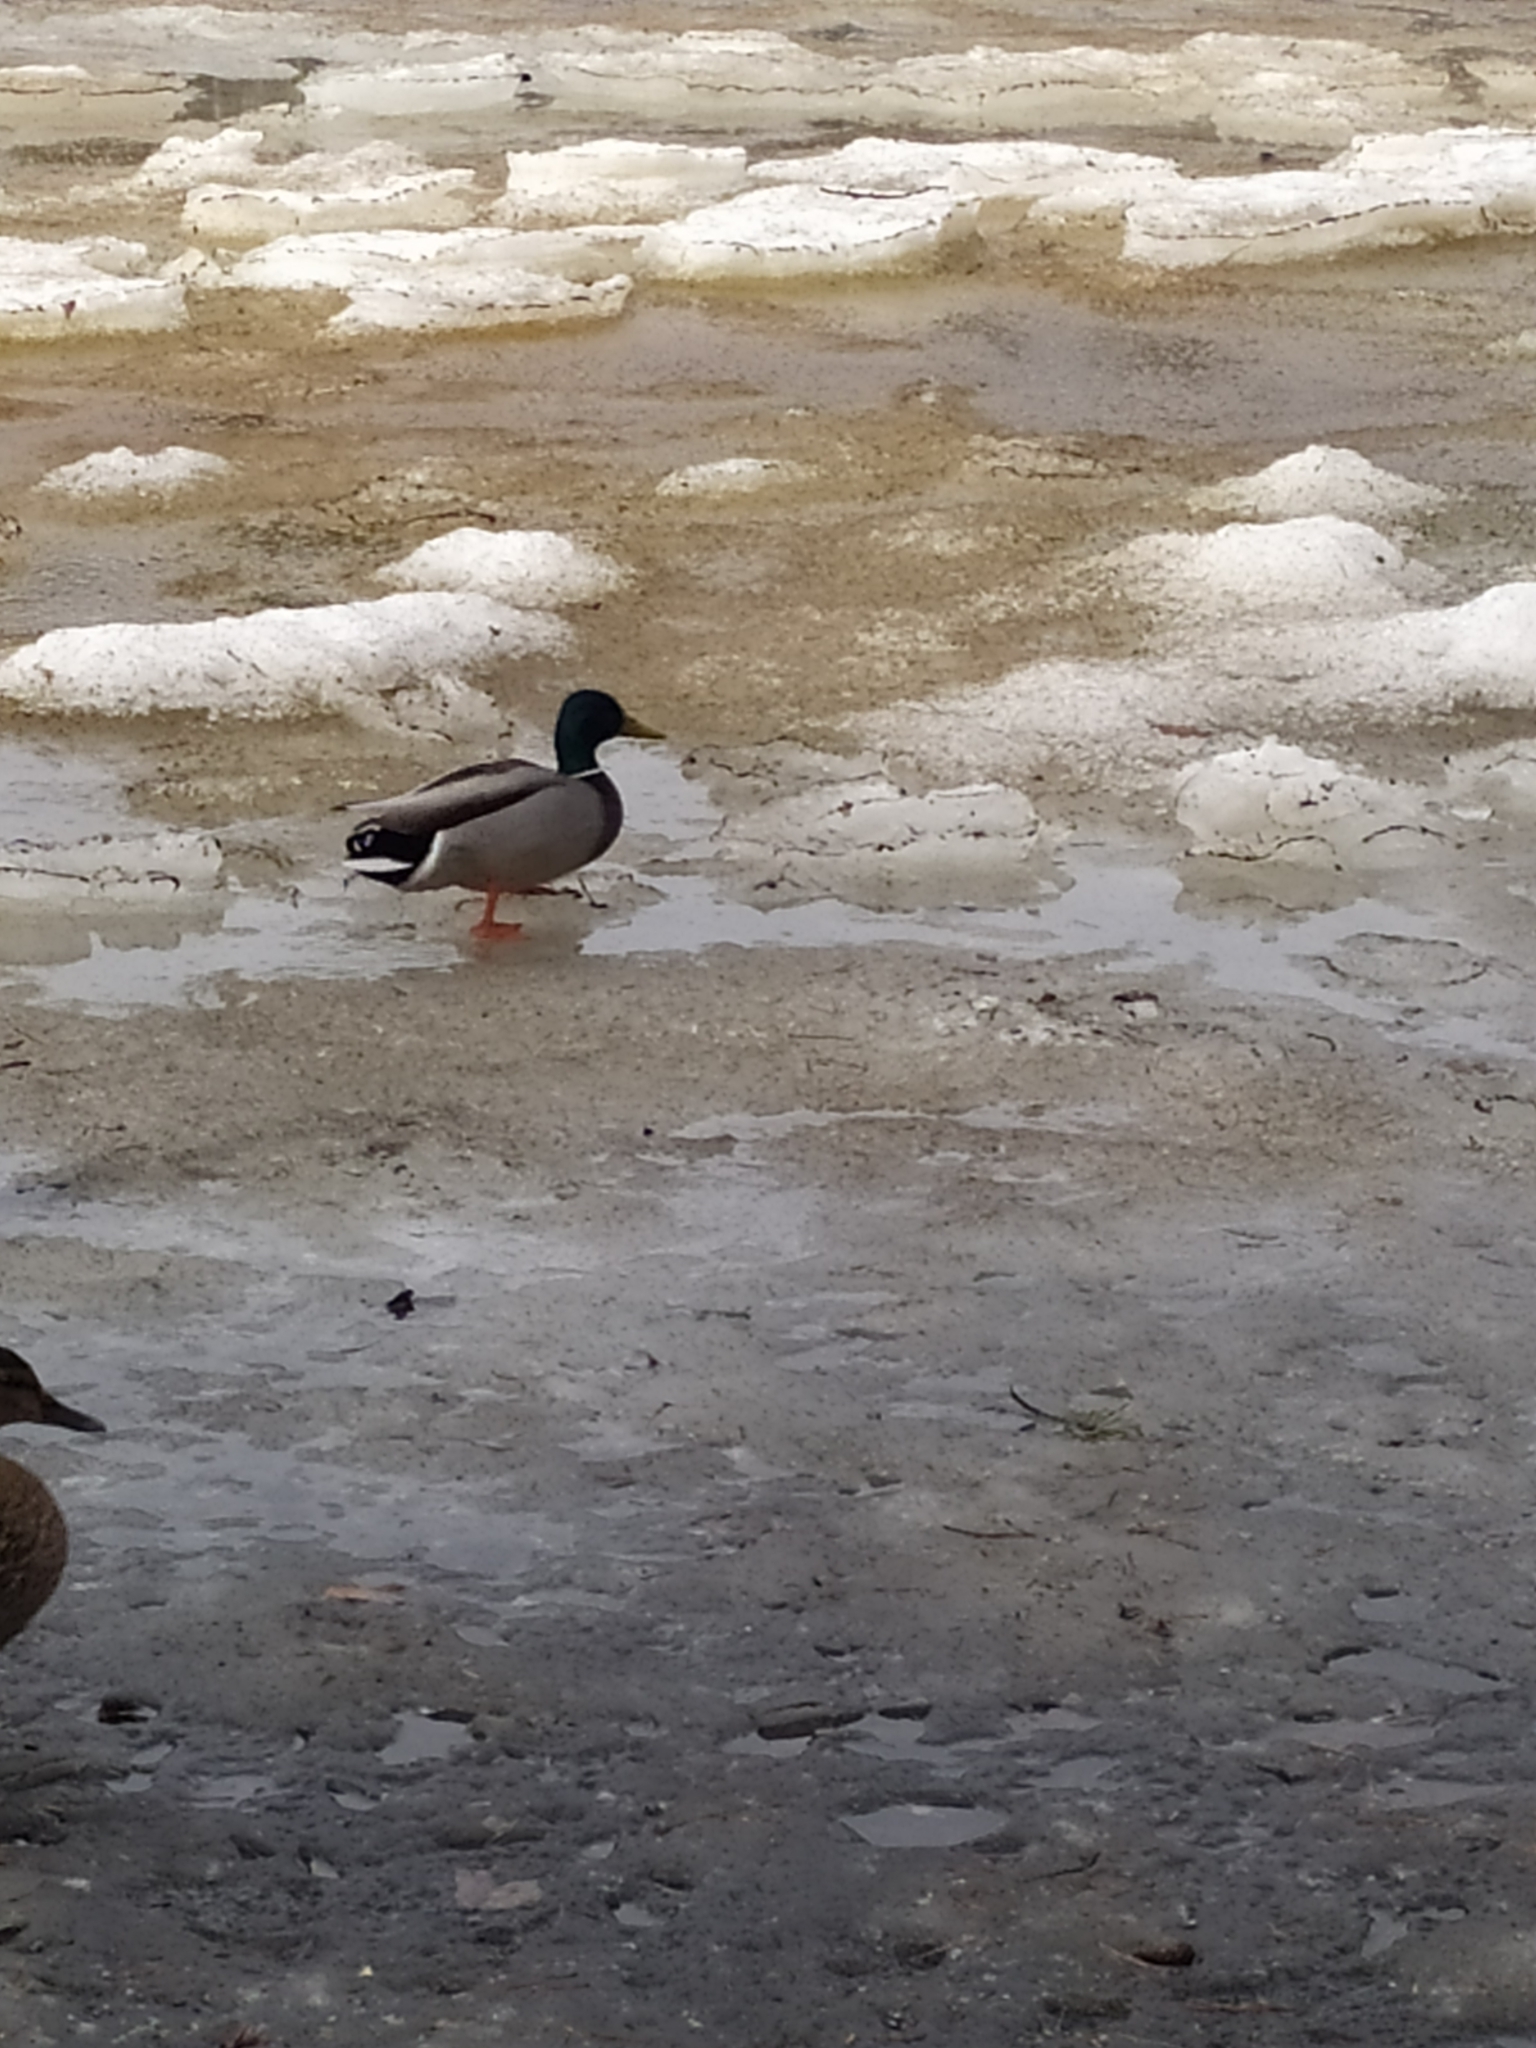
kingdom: Animalia
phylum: Chordata
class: Aves
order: Anseriformes
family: Anatidae
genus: Anas
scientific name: Anas platyrhynchos
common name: Mallard
